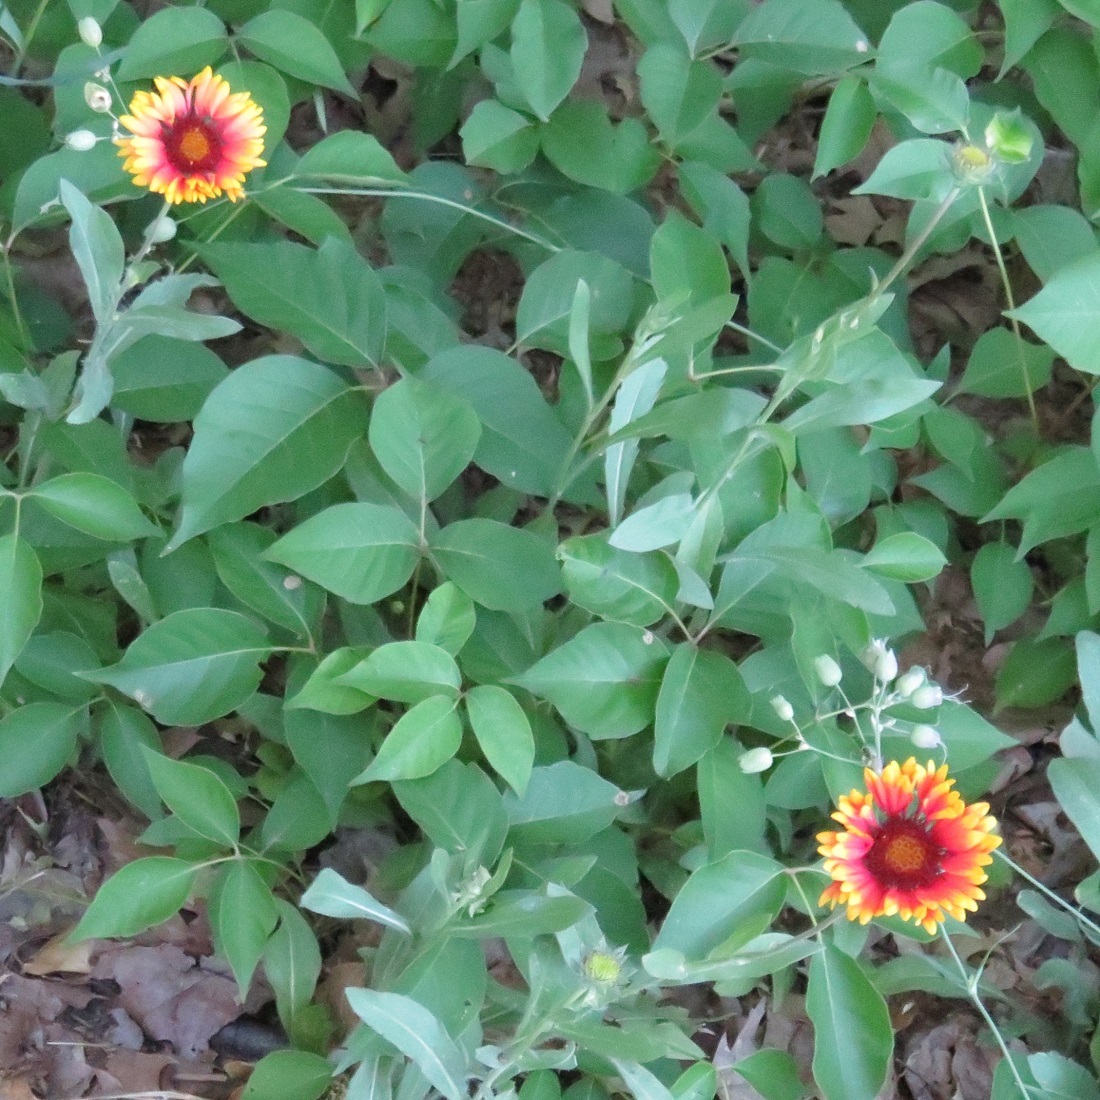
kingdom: Plantae
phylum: Tracheophyta
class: Magnoliopsida
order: Asterales
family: Asteraceae
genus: Gaillardia
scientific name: Gaillardia pulchella
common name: Firewheel
